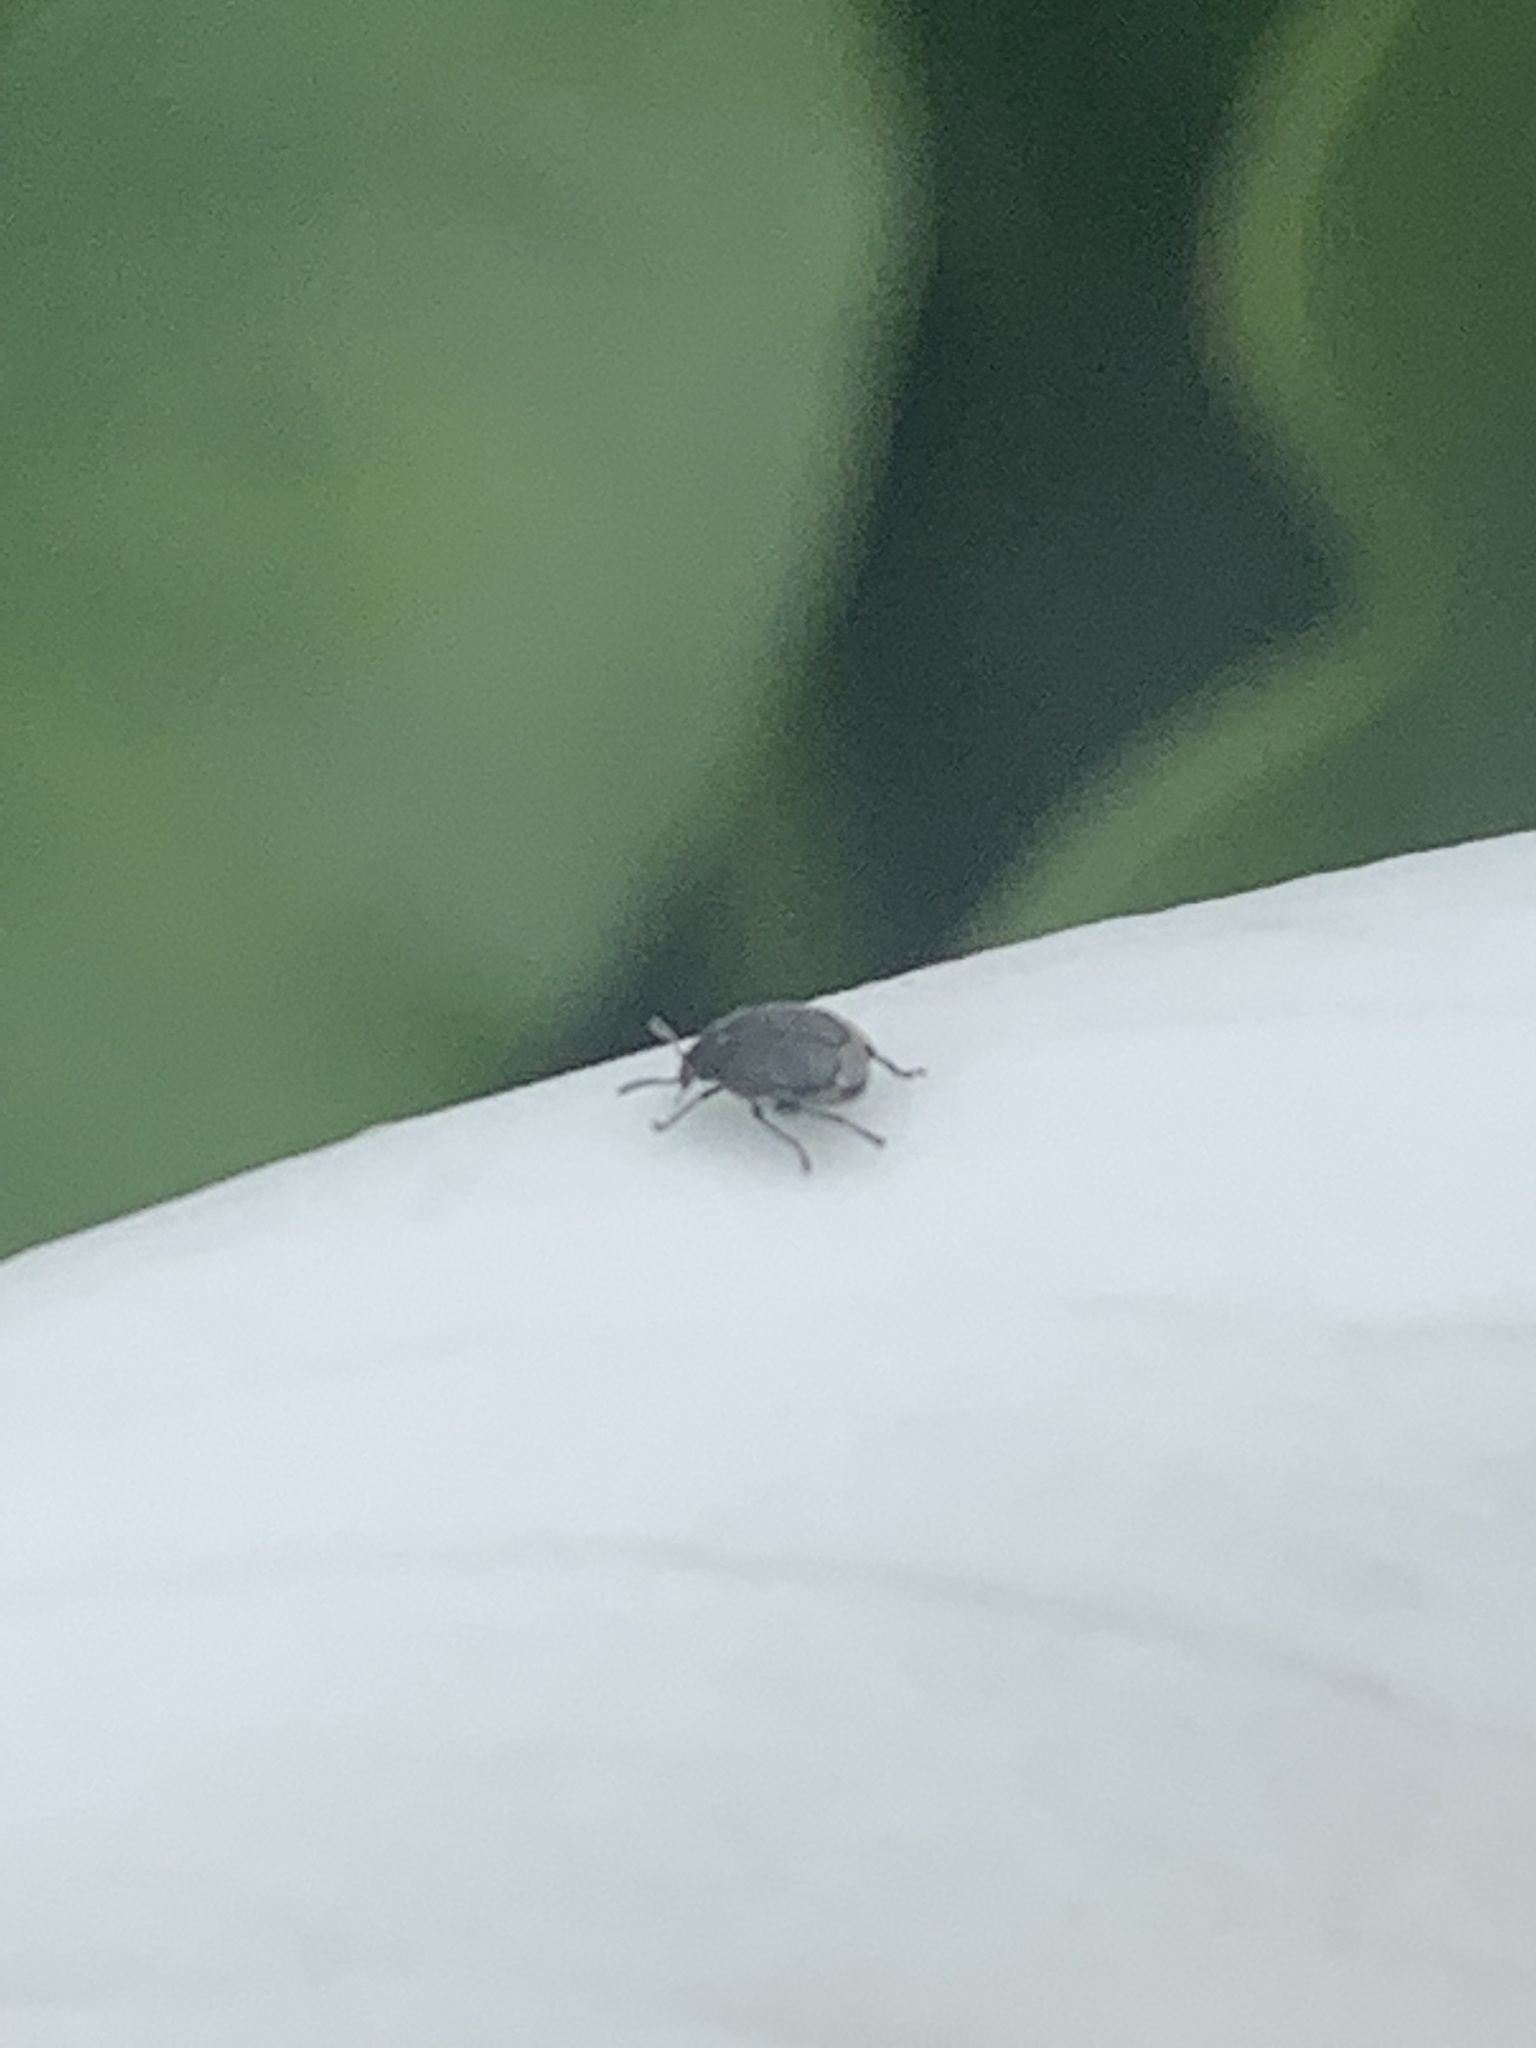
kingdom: Animalia
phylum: Arthropoda
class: Insecta
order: Coleoptera
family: Chrysomelidae
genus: Bruchidius
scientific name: Bruchidius villosus
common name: Scotch broom bruchid
